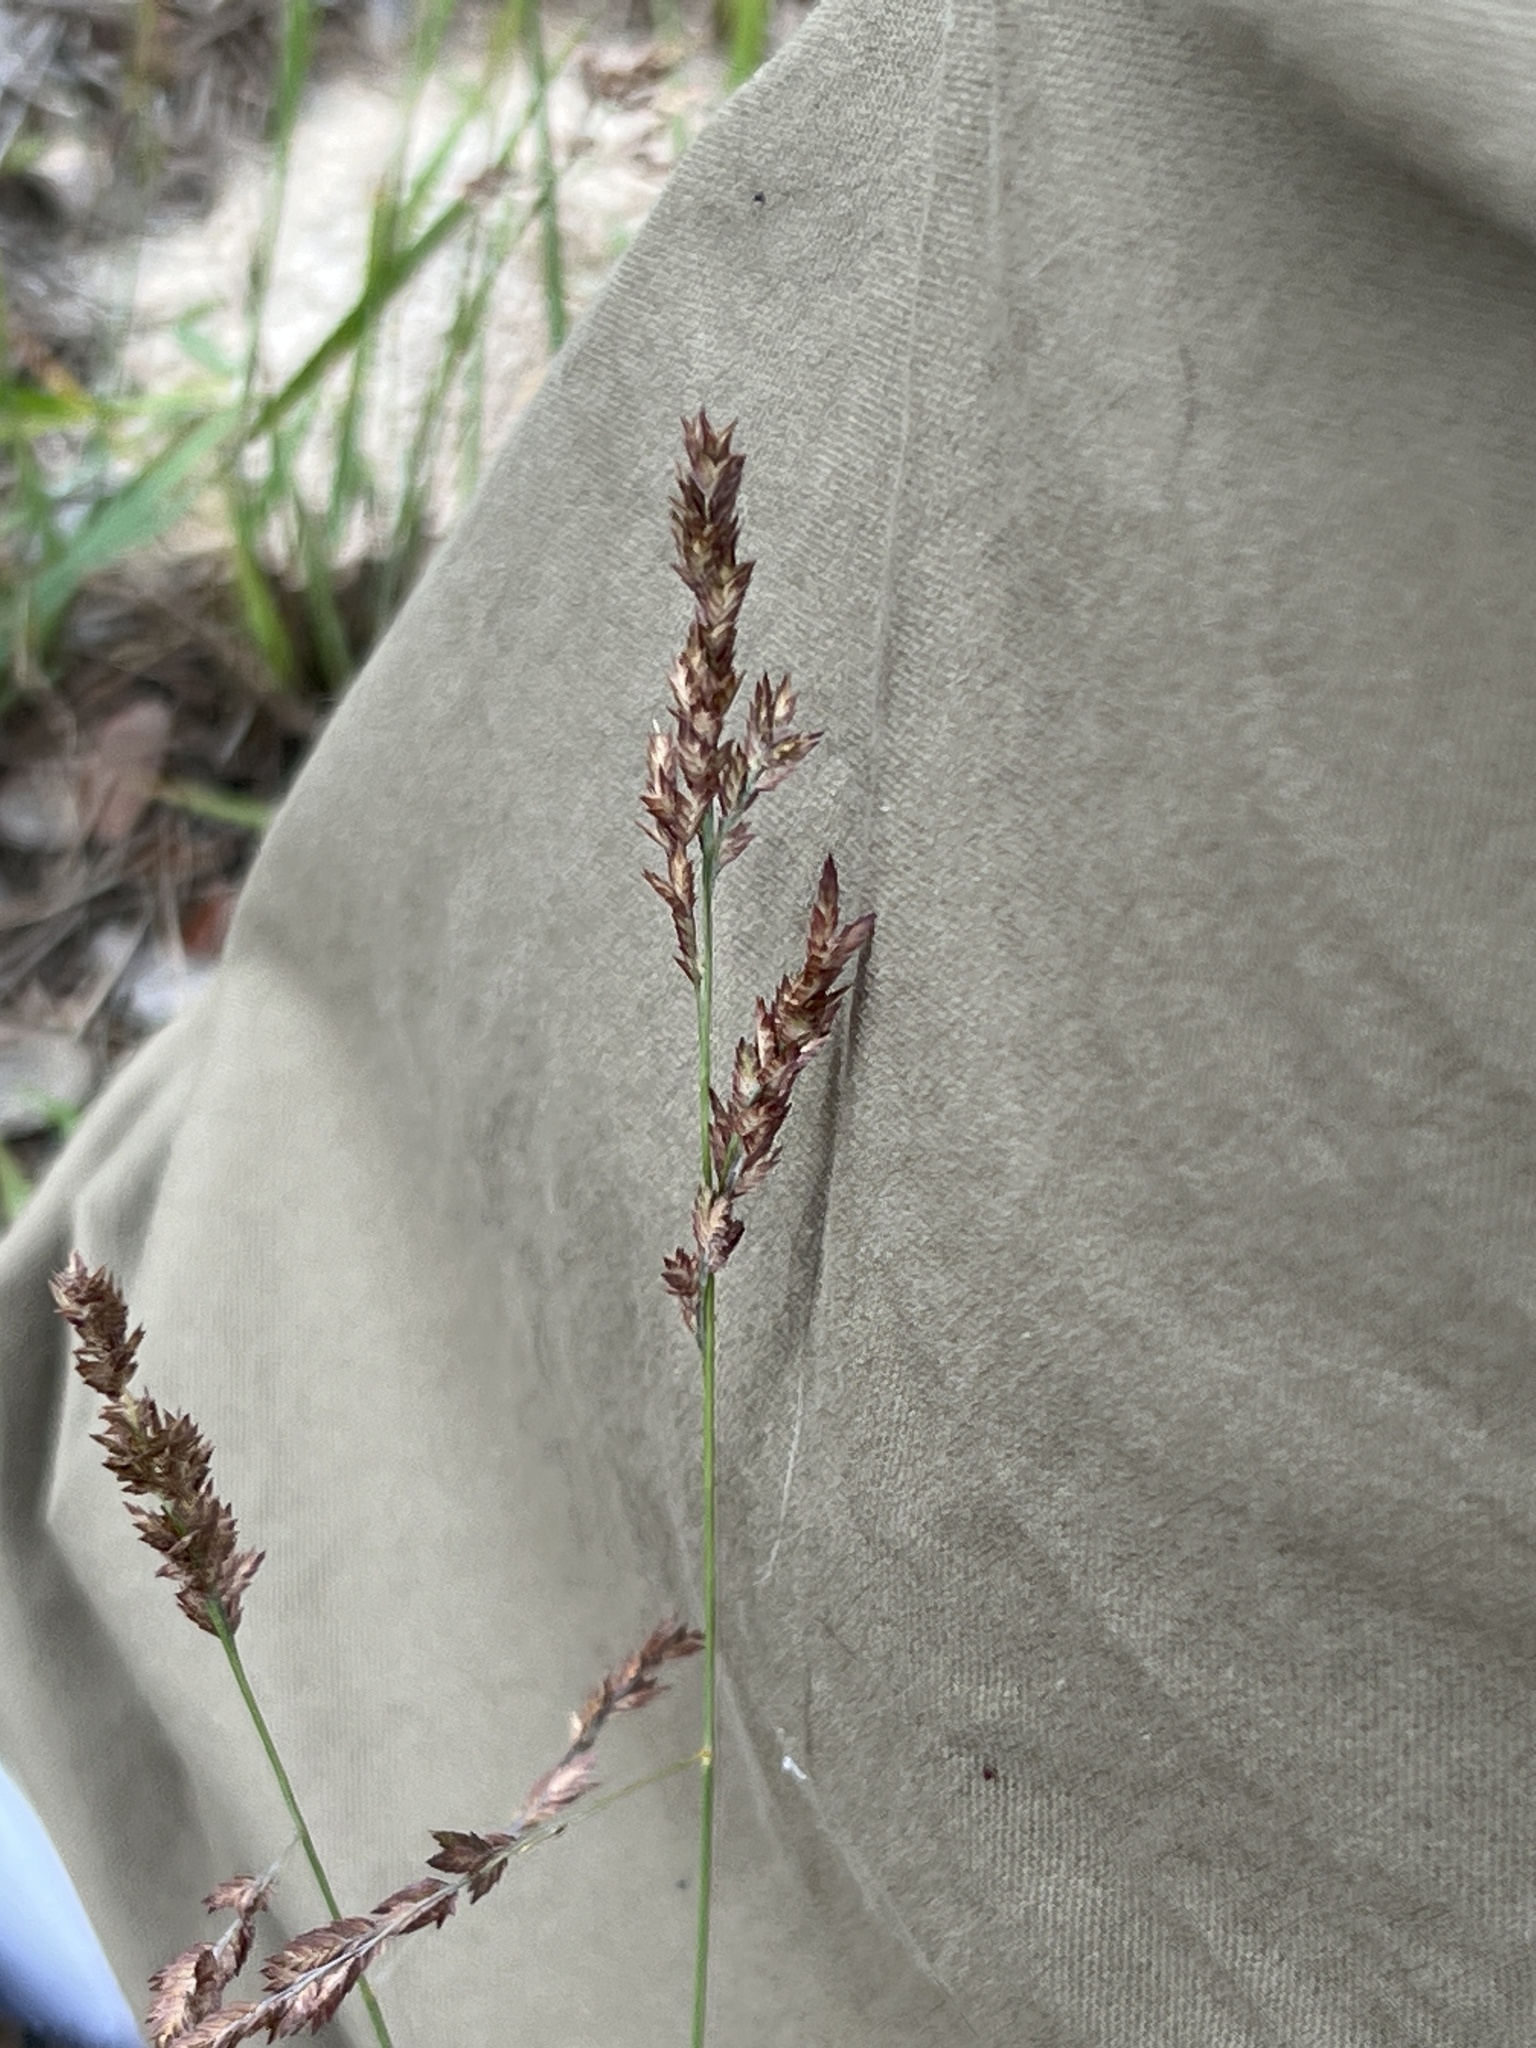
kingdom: Plantae
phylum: Tracheophyta
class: Liliopsida
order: Poales
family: Poaceae
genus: Eragrostis
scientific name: Eragrostis secundiflora
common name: Red love grass
